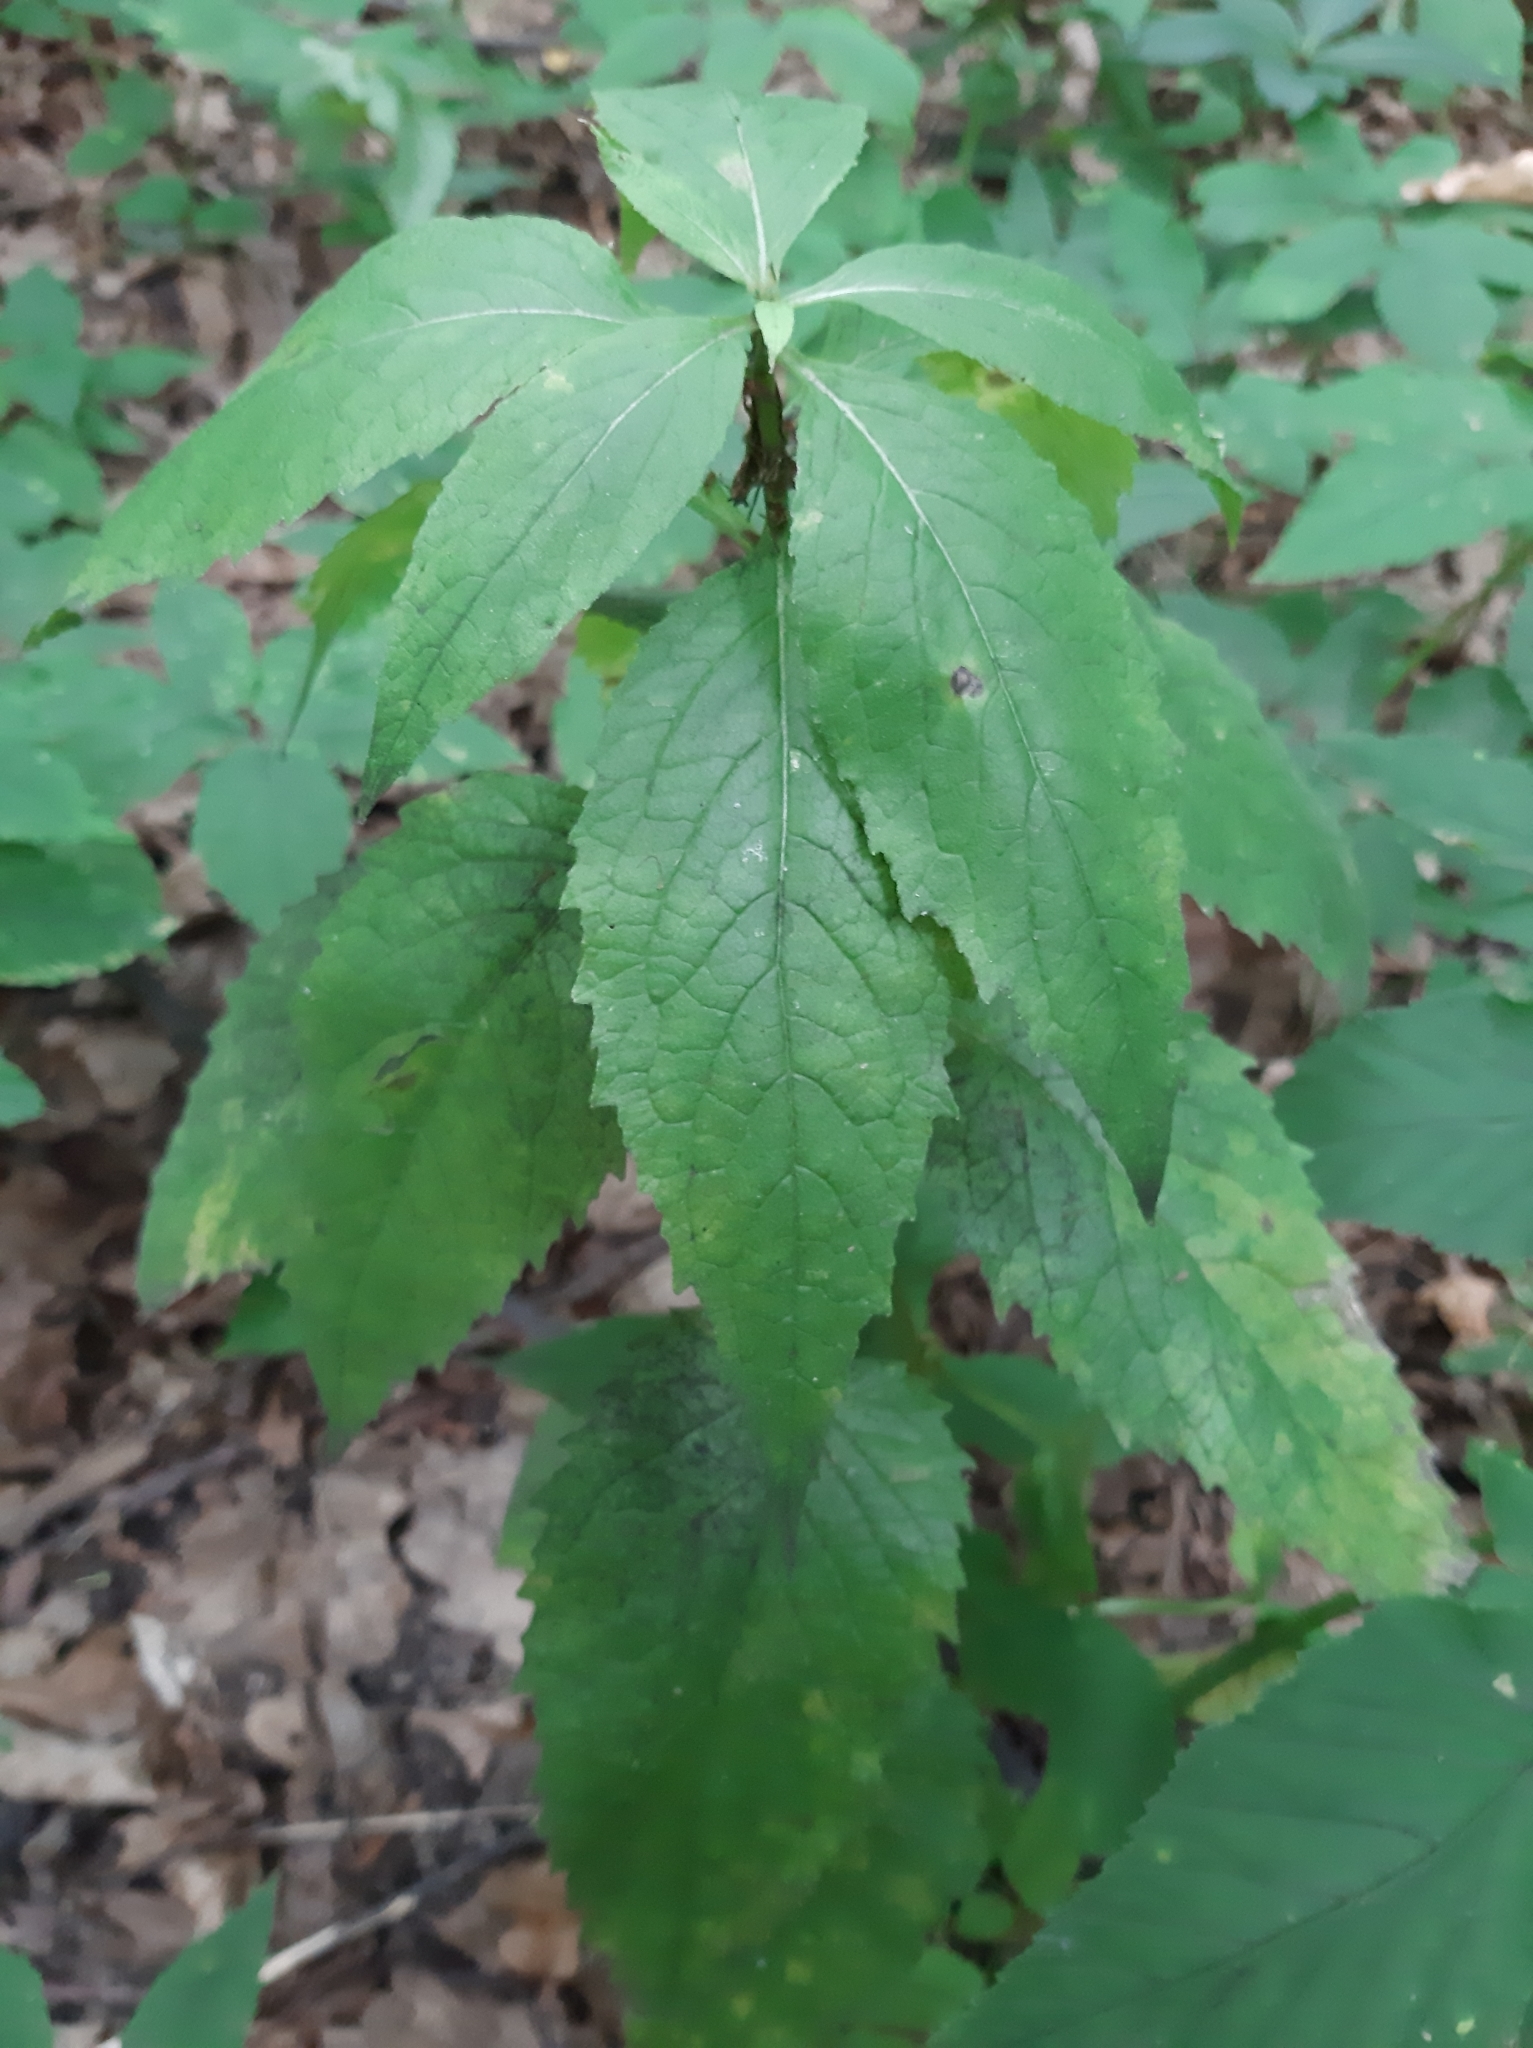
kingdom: Plantae
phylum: Tracheophyta
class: Magnoliopsida
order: Asterales
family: Campanulaceae
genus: Campanula
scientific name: Campanula latifolia
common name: Giant bellflower
